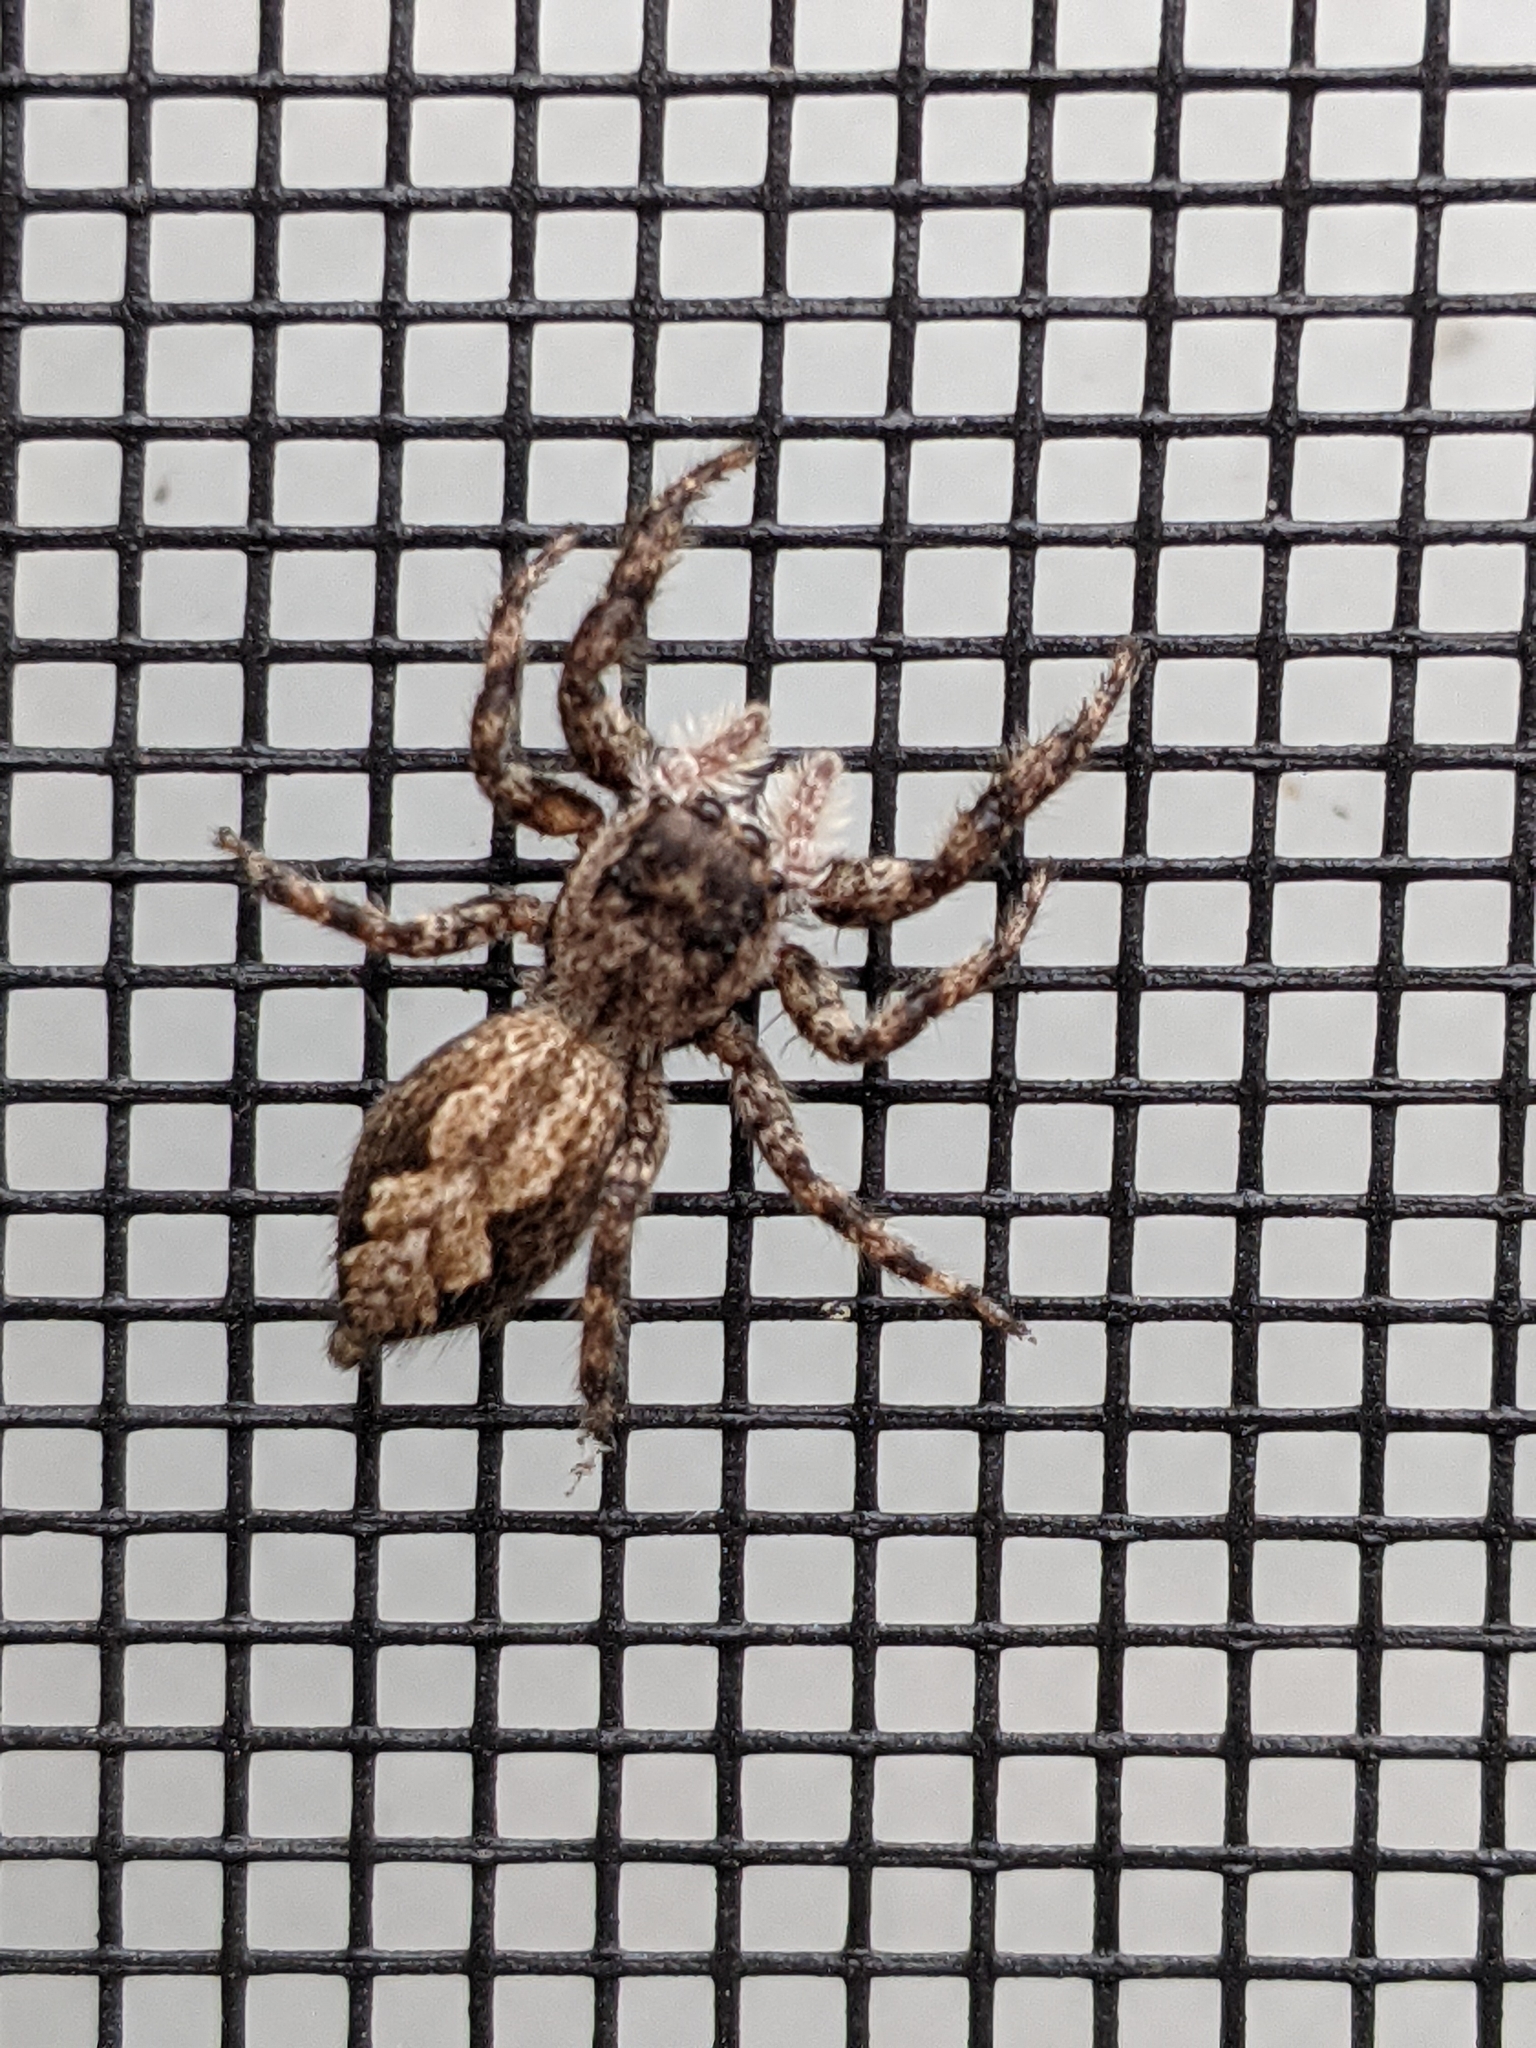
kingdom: Animalia
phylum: Arthropoda
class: Arachnida
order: Araneae
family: Salticidae
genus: Platycryptus
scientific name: Platycryptus undatus
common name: Tan jumping spider
